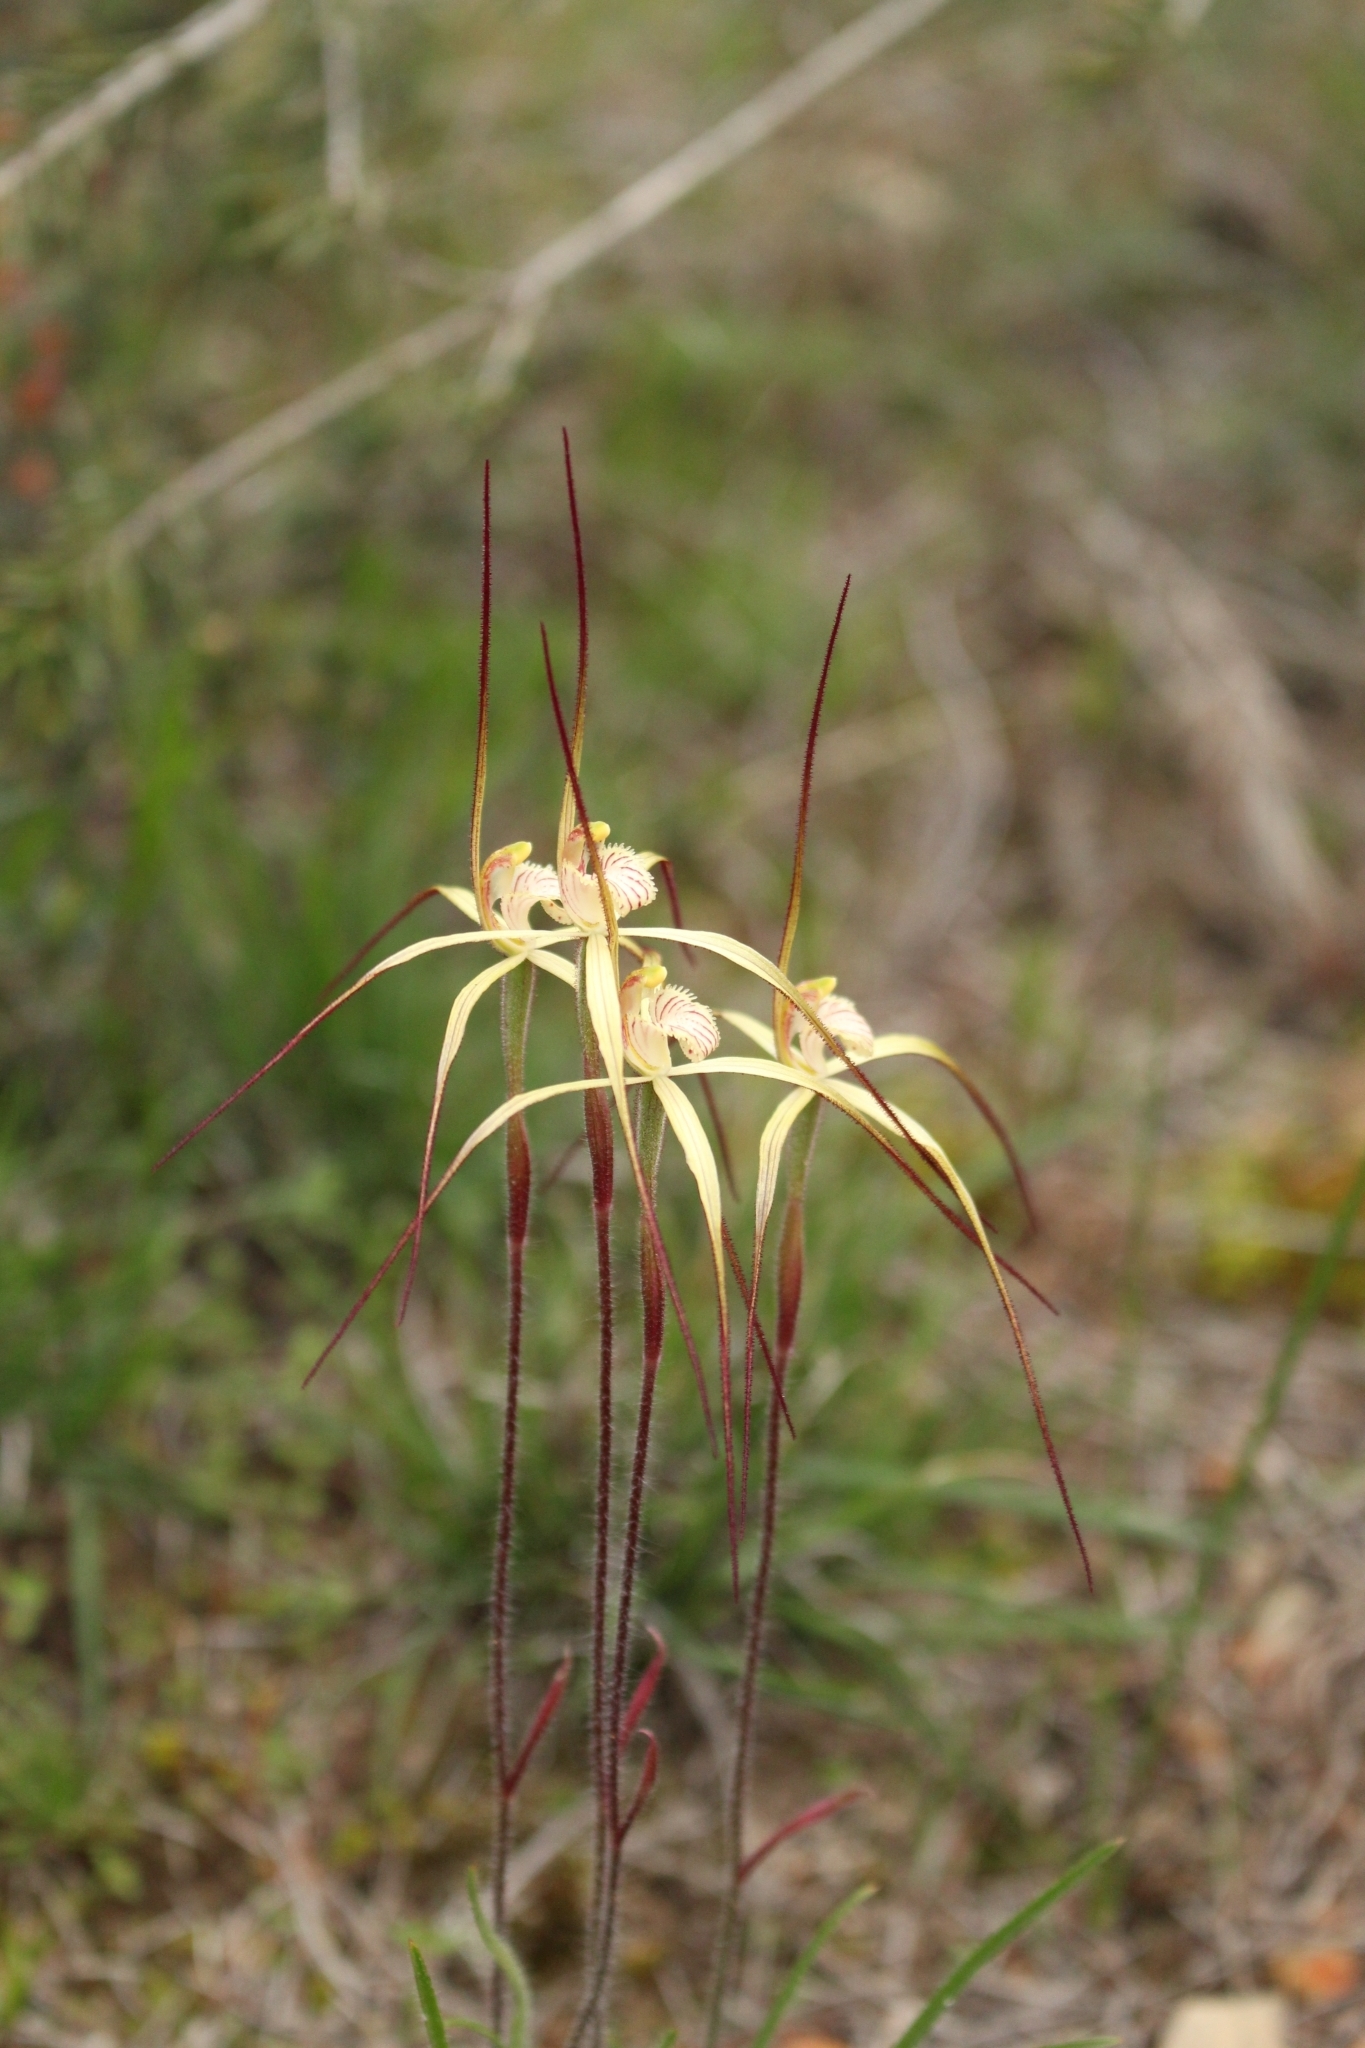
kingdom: Plantae
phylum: Tracheophyta
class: Liliopsida
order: Asparagales
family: Orchidaceae
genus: Caladenia
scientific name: Caladenia xantha
